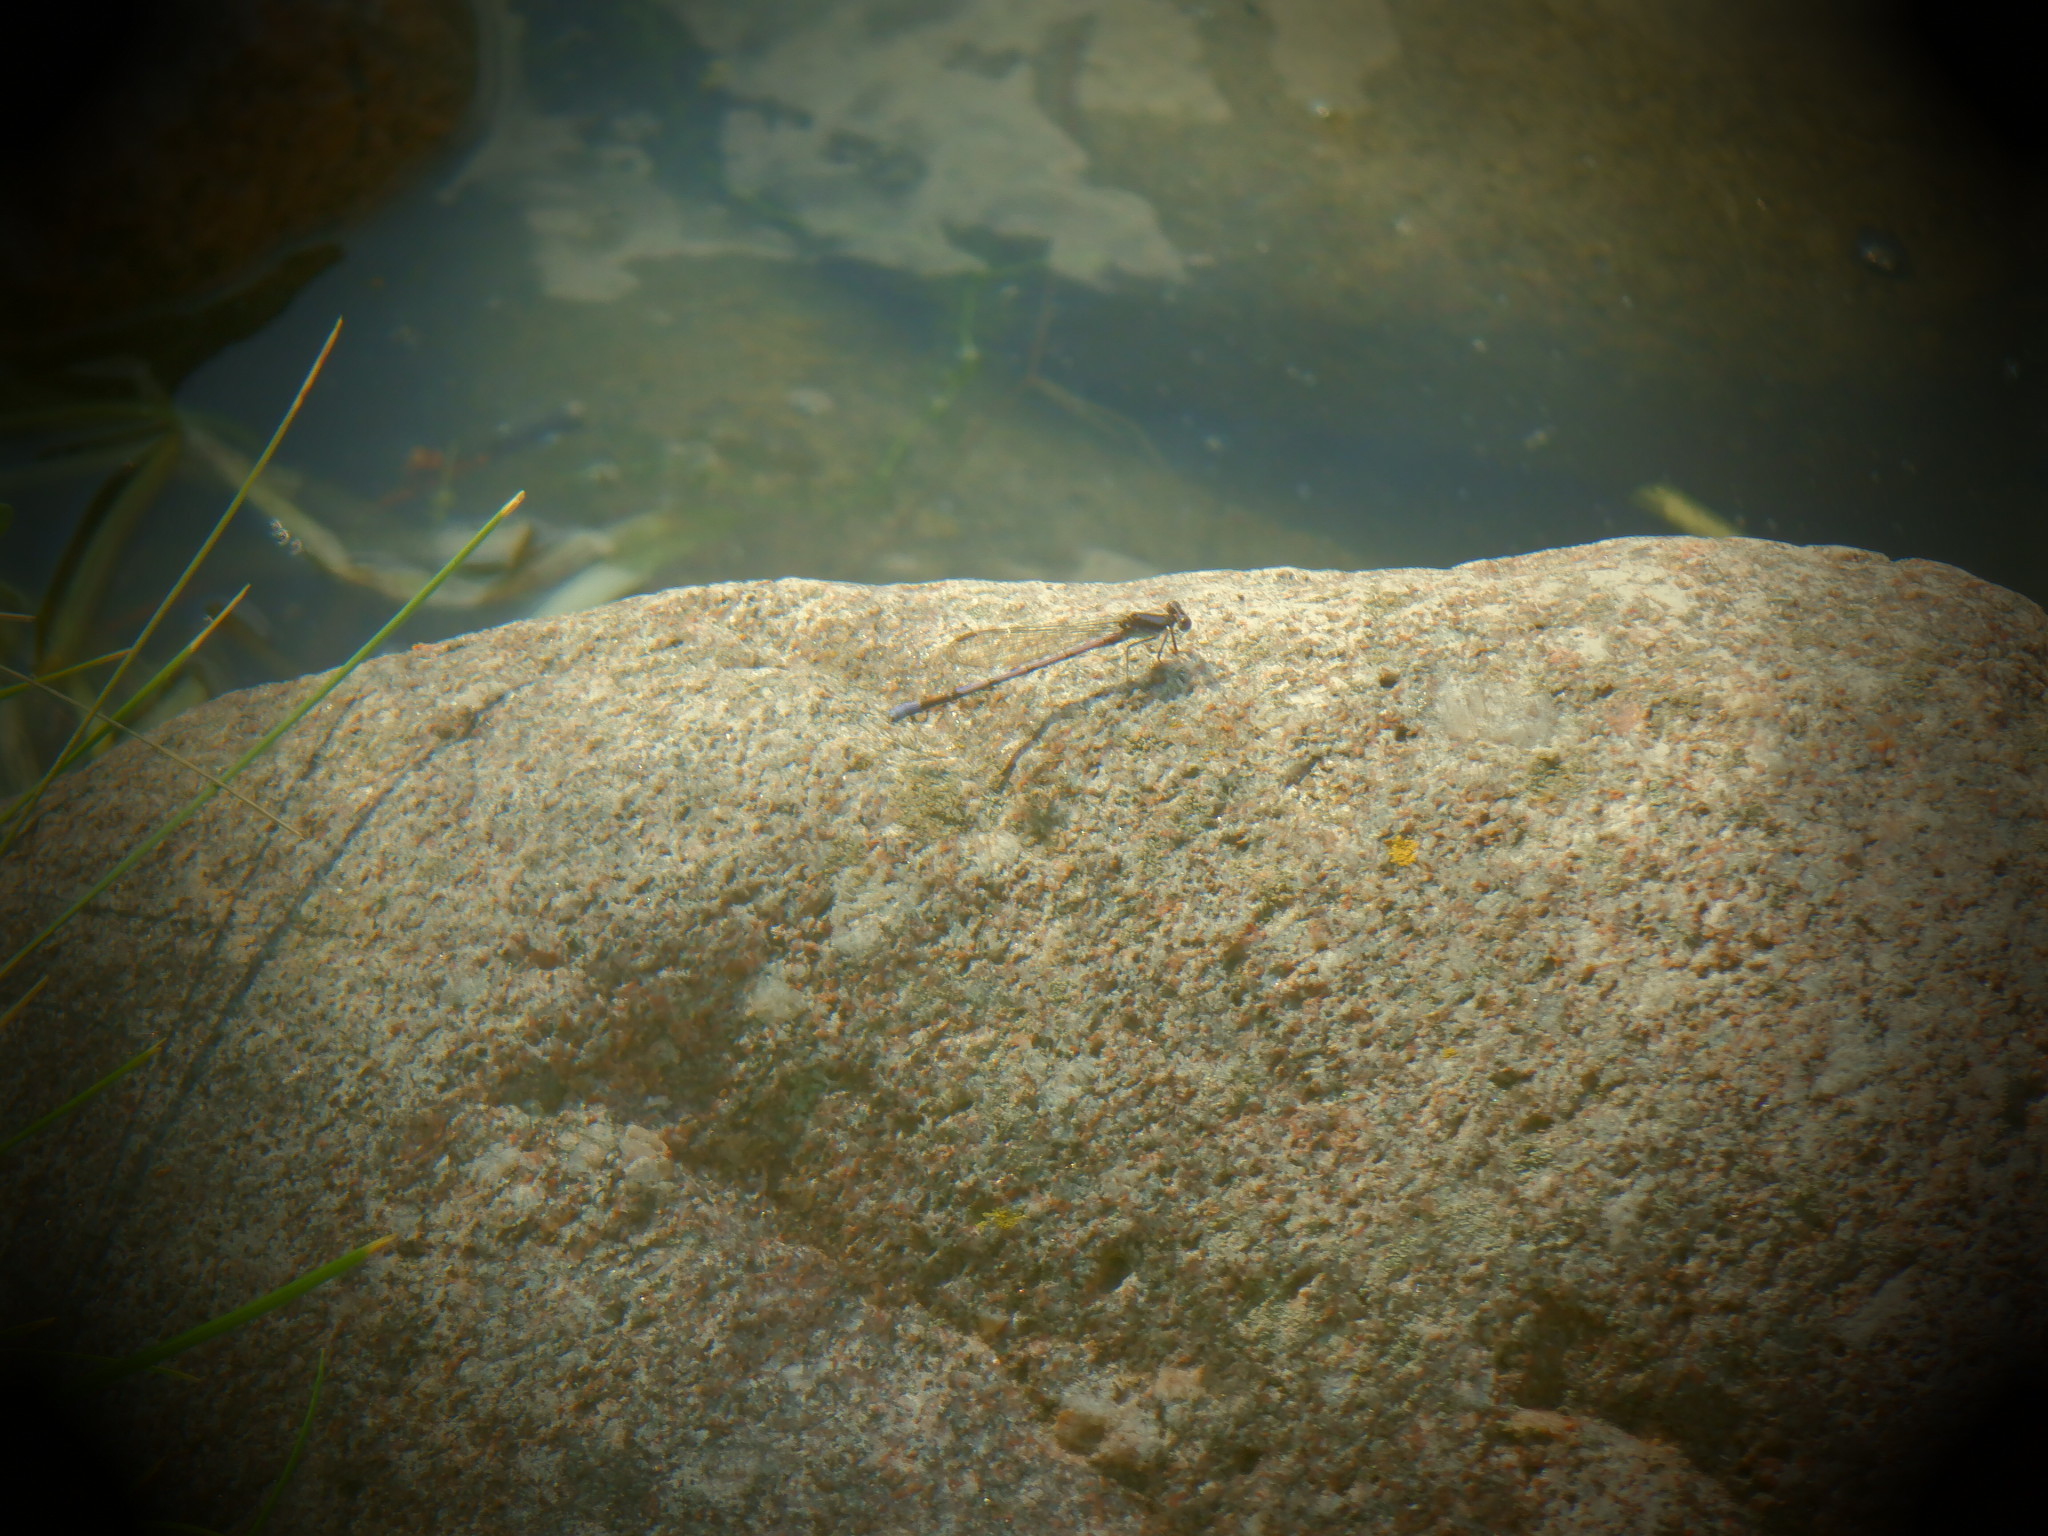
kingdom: Animalia
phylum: Arthropoda
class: Insecta
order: Odonata
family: Coenagrionidae
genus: Argia
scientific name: Argia fumipennis
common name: Variable dancer
